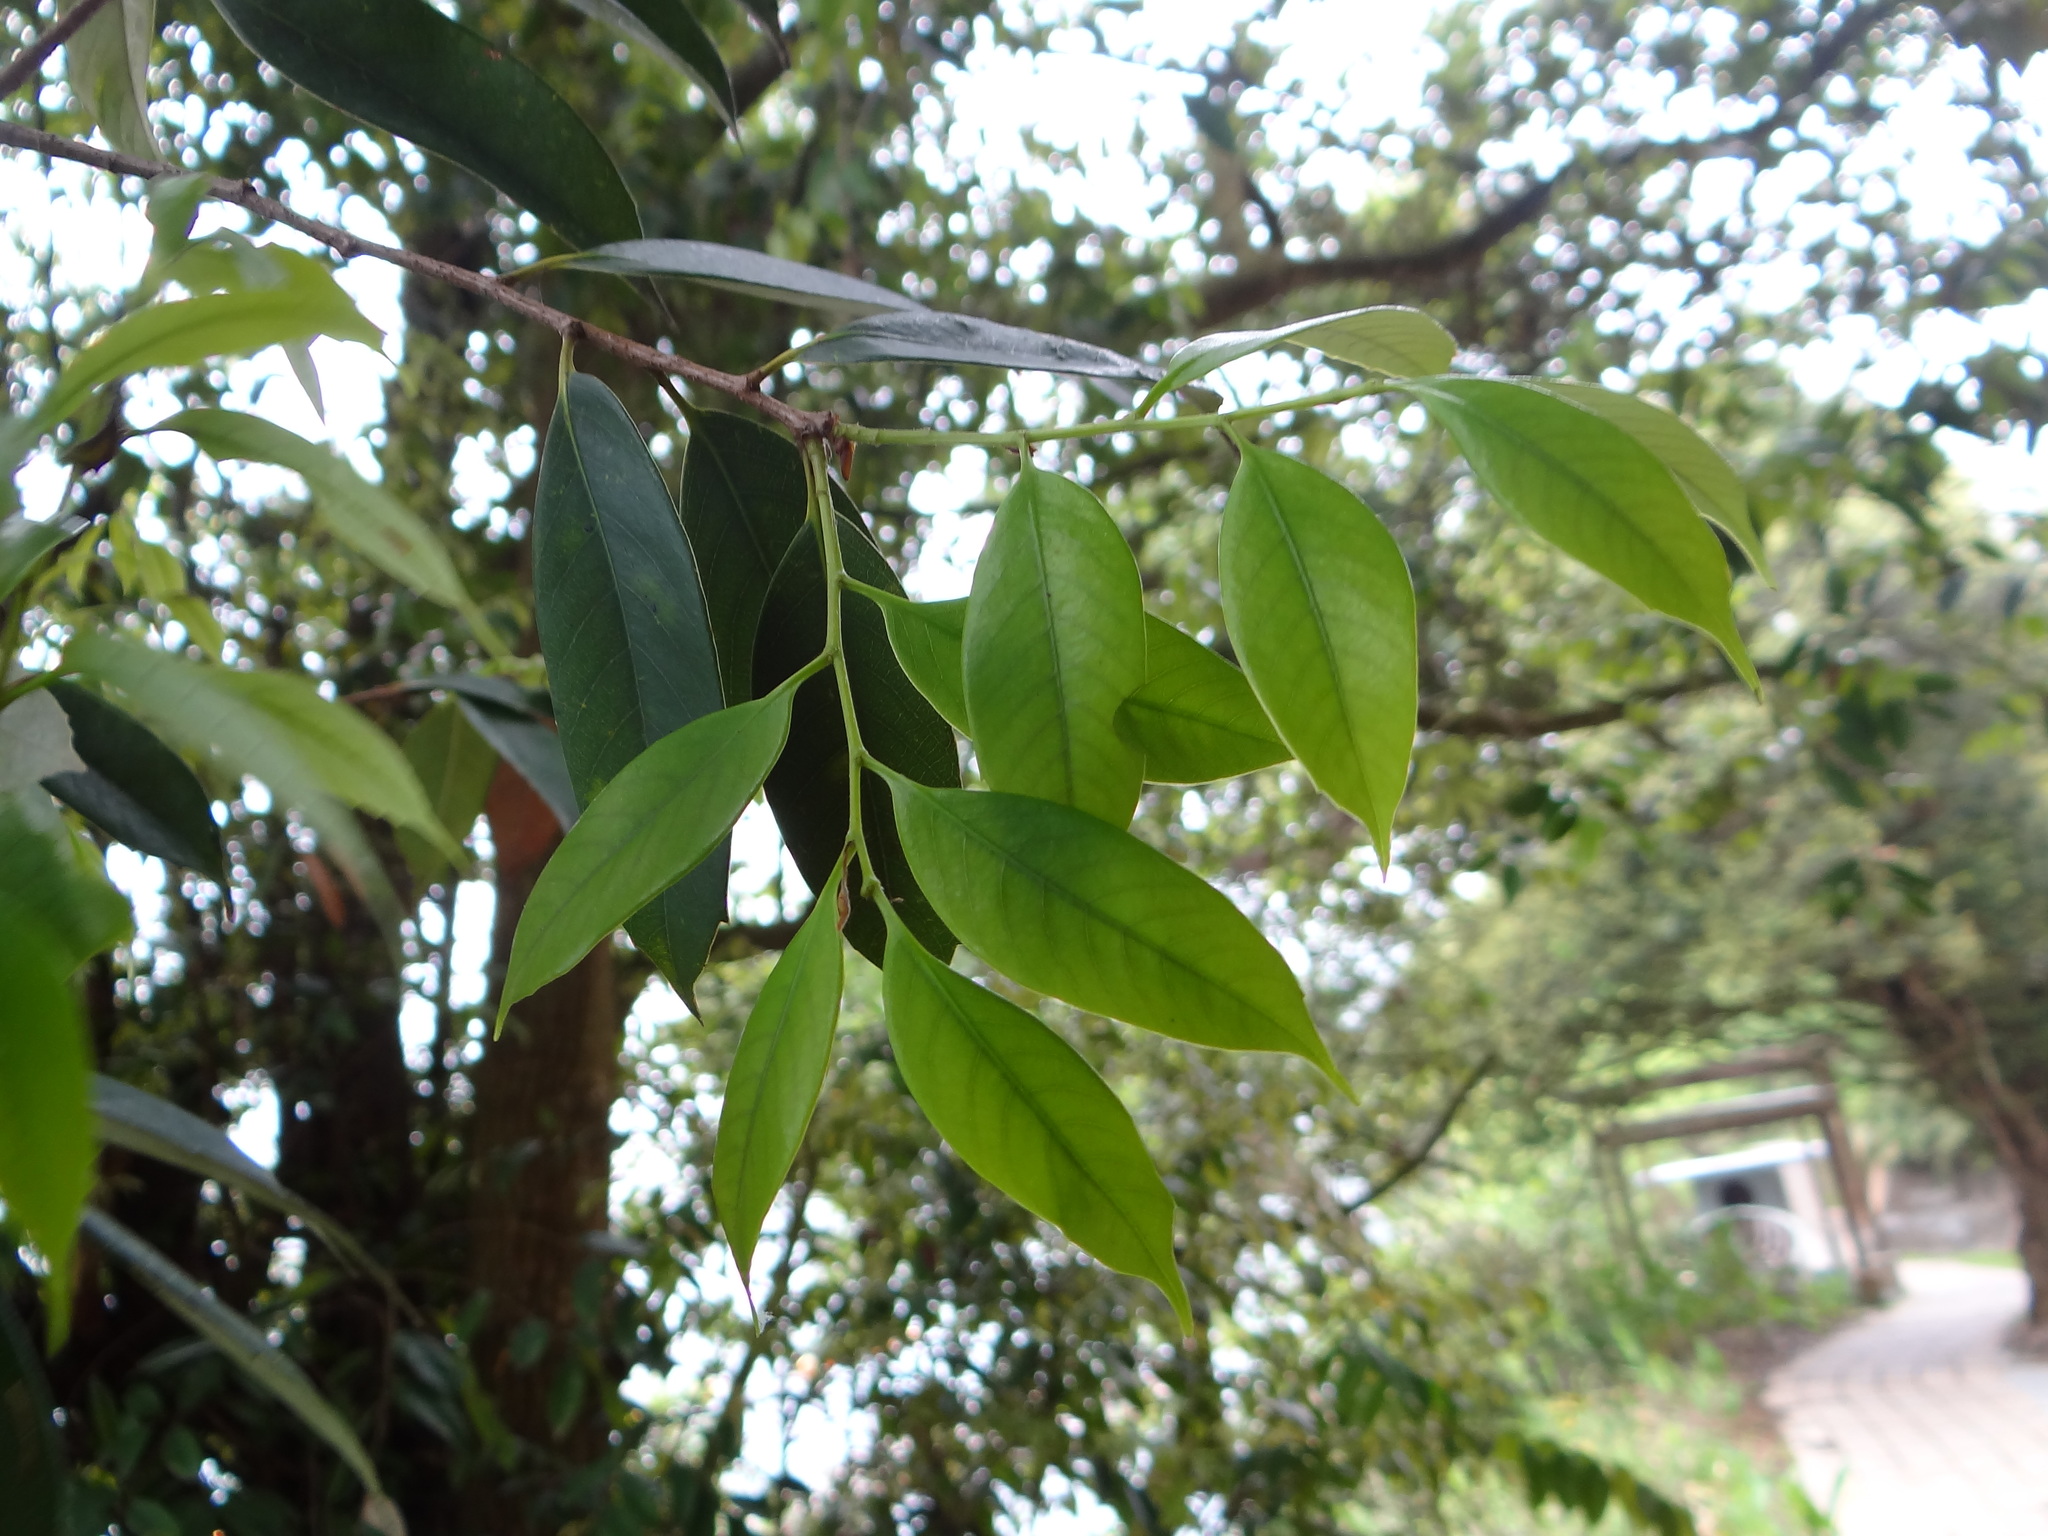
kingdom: Plantae
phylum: Tracheophyta
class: Magnoliopsida
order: Fagales
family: Fagaceae
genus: Lithocarpus
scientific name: Lithocarpus uraianus
